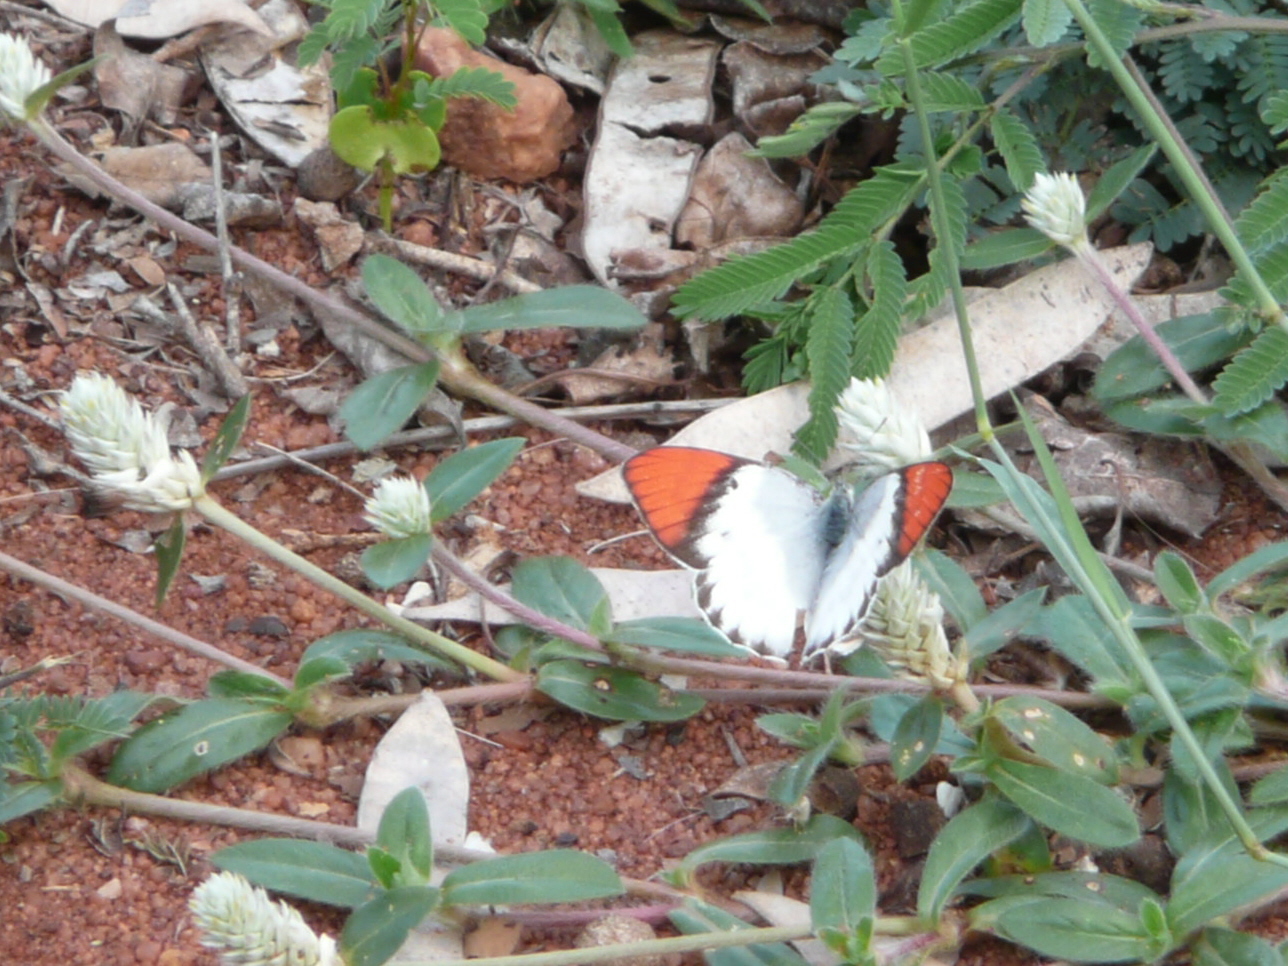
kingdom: Animalia
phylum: Arthropoda
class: Insecta
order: Lepidoptera
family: Pieridae
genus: Colotis
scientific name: Colotis annae
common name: Scarlet tip
